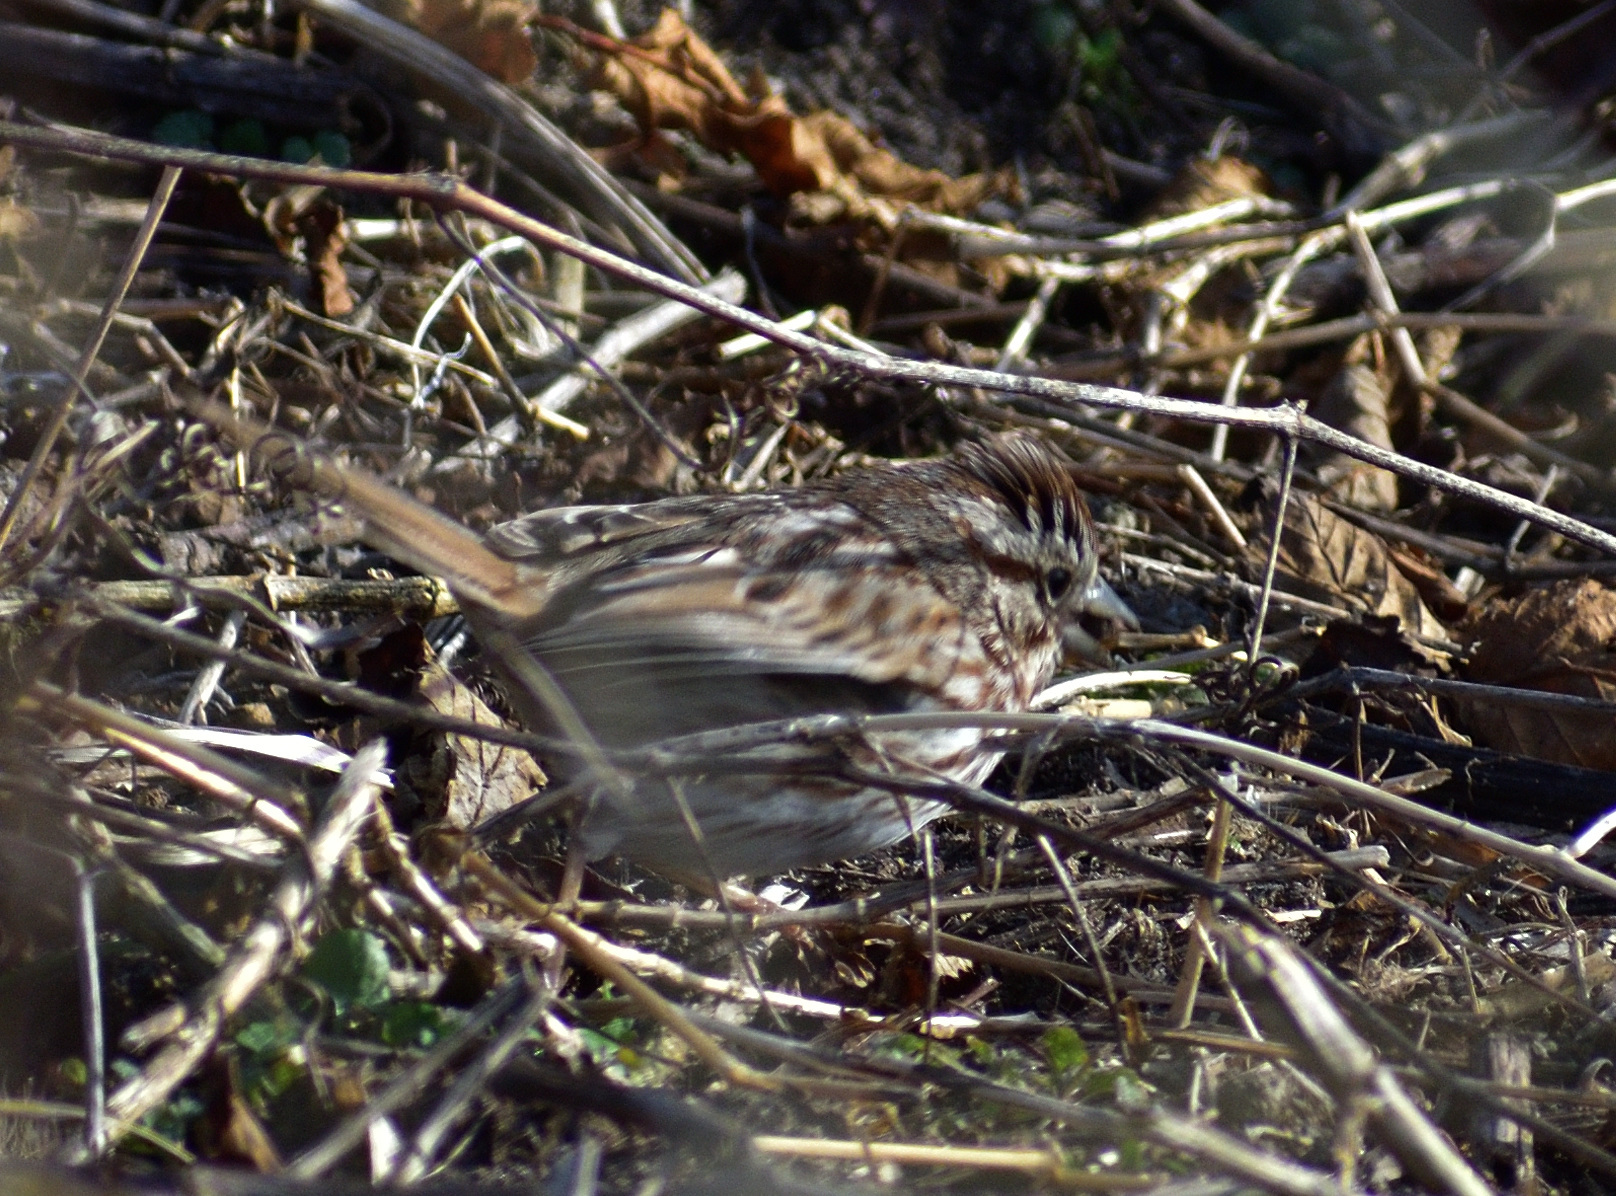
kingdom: Animalia
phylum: Chordata
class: Aves
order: Passeriformes
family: Passerellidae
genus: Melospiza
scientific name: Melospiza melodia
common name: Song sparrow
